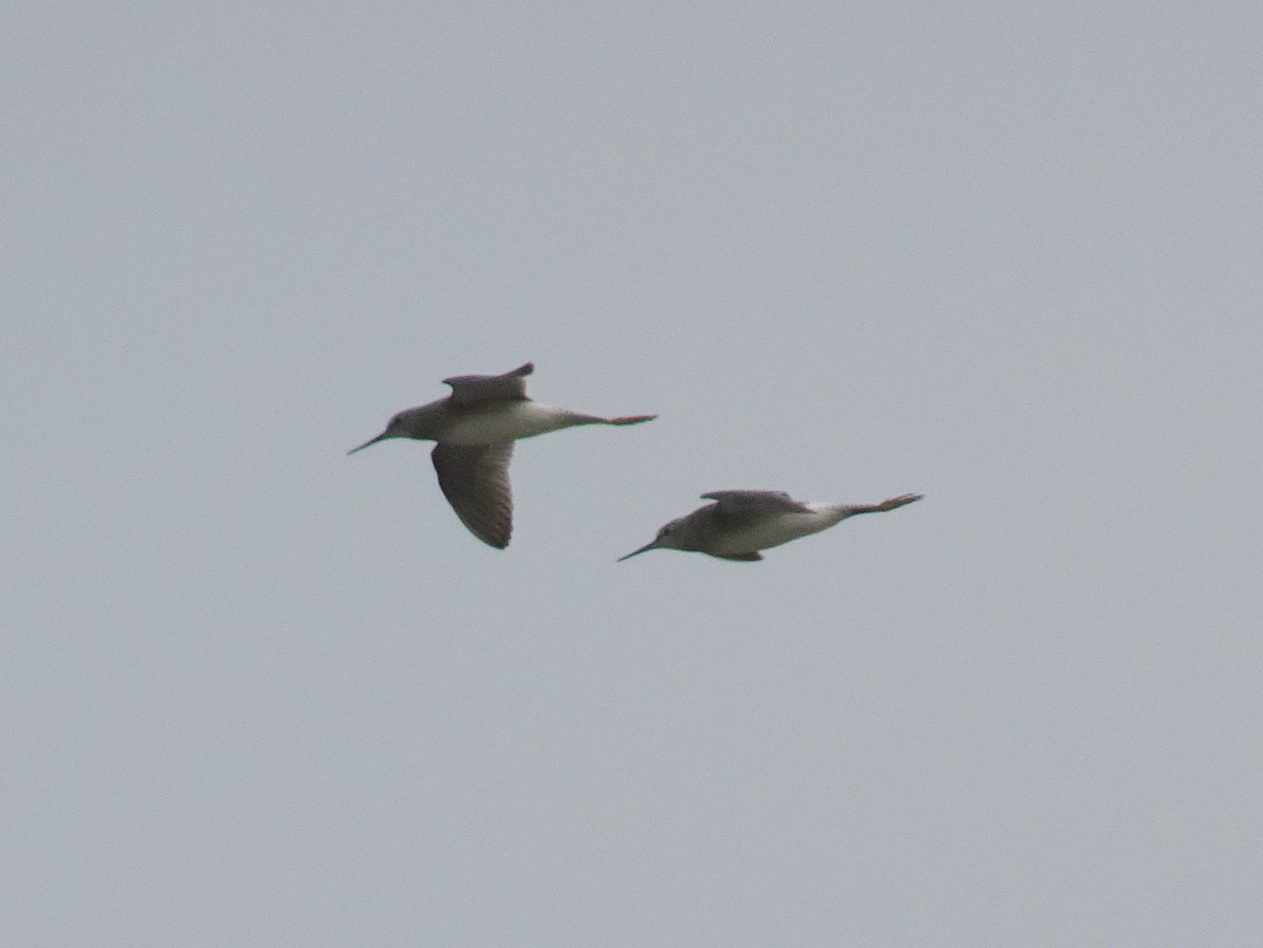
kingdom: Animalia
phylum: Chordata
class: Aves
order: Charadriiformes
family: Scolopacidae
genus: Tringa
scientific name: Tringa flavipes
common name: Lesser yellowlegs
